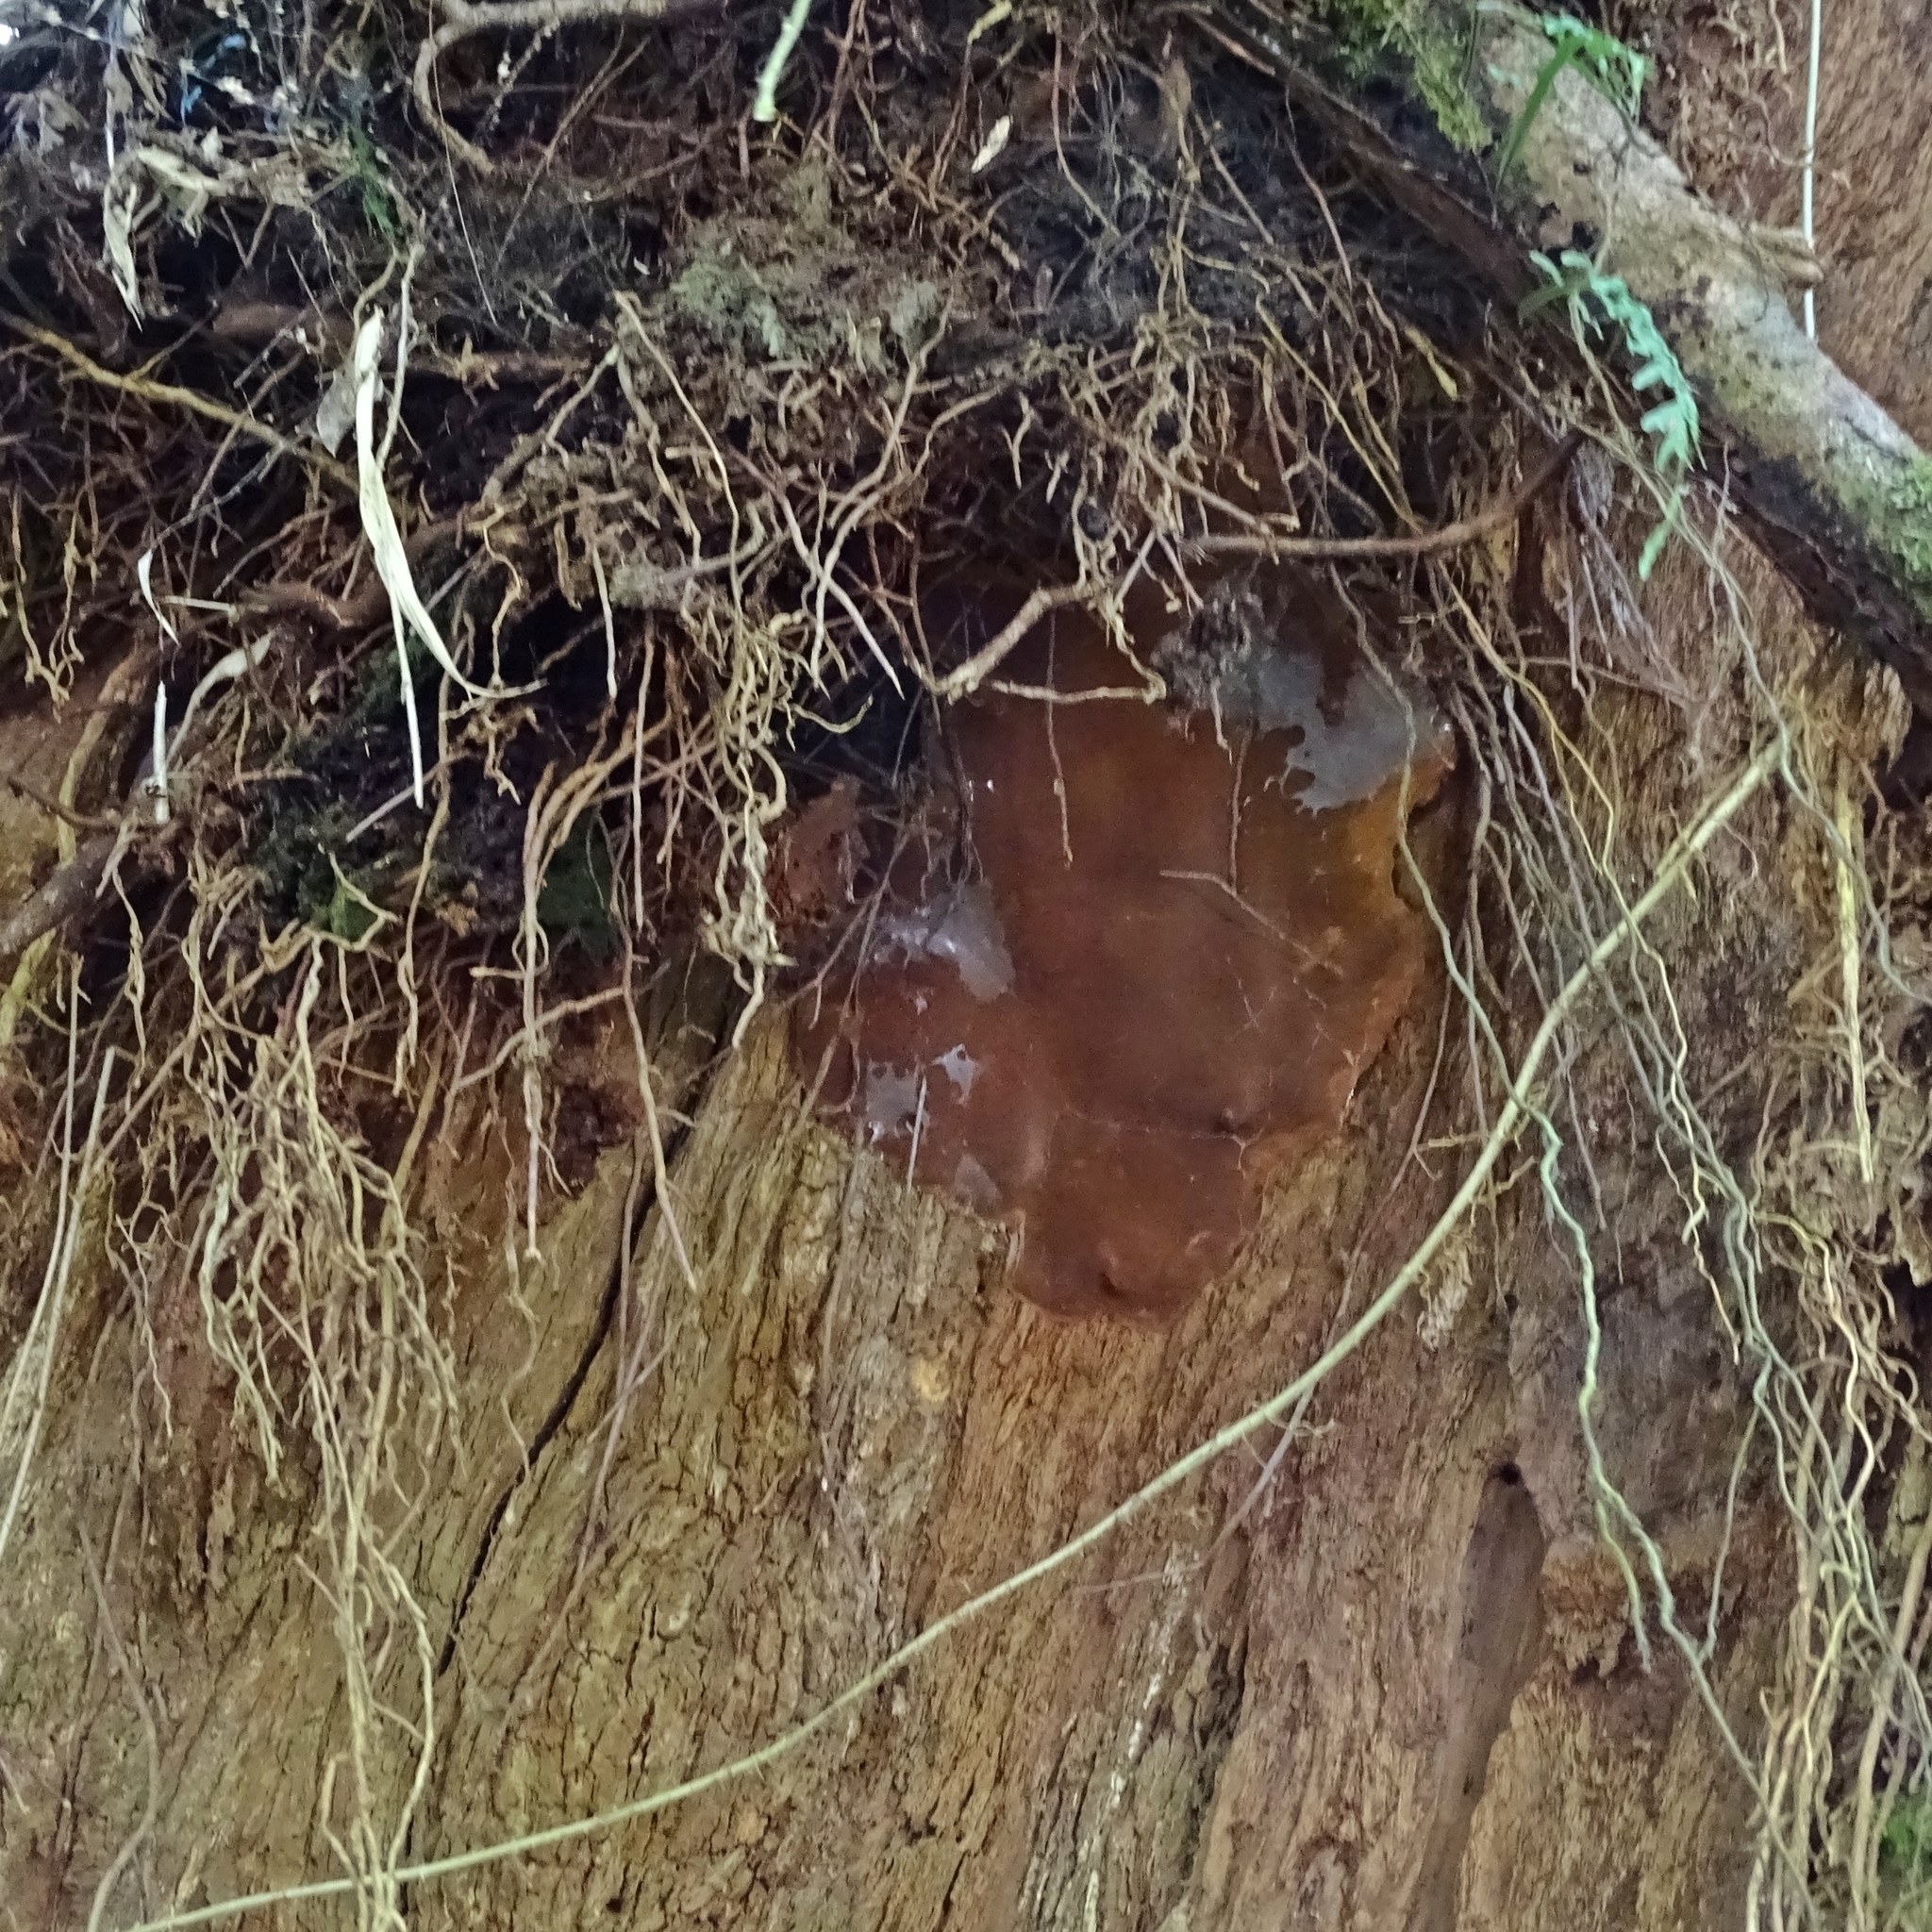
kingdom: Fungi
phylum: Basidiomycota
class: Agaricomycetes
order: Hymenochaetales
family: Hymenochaetaceae
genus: Fuscoporia
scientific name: Fuscoporia senex
